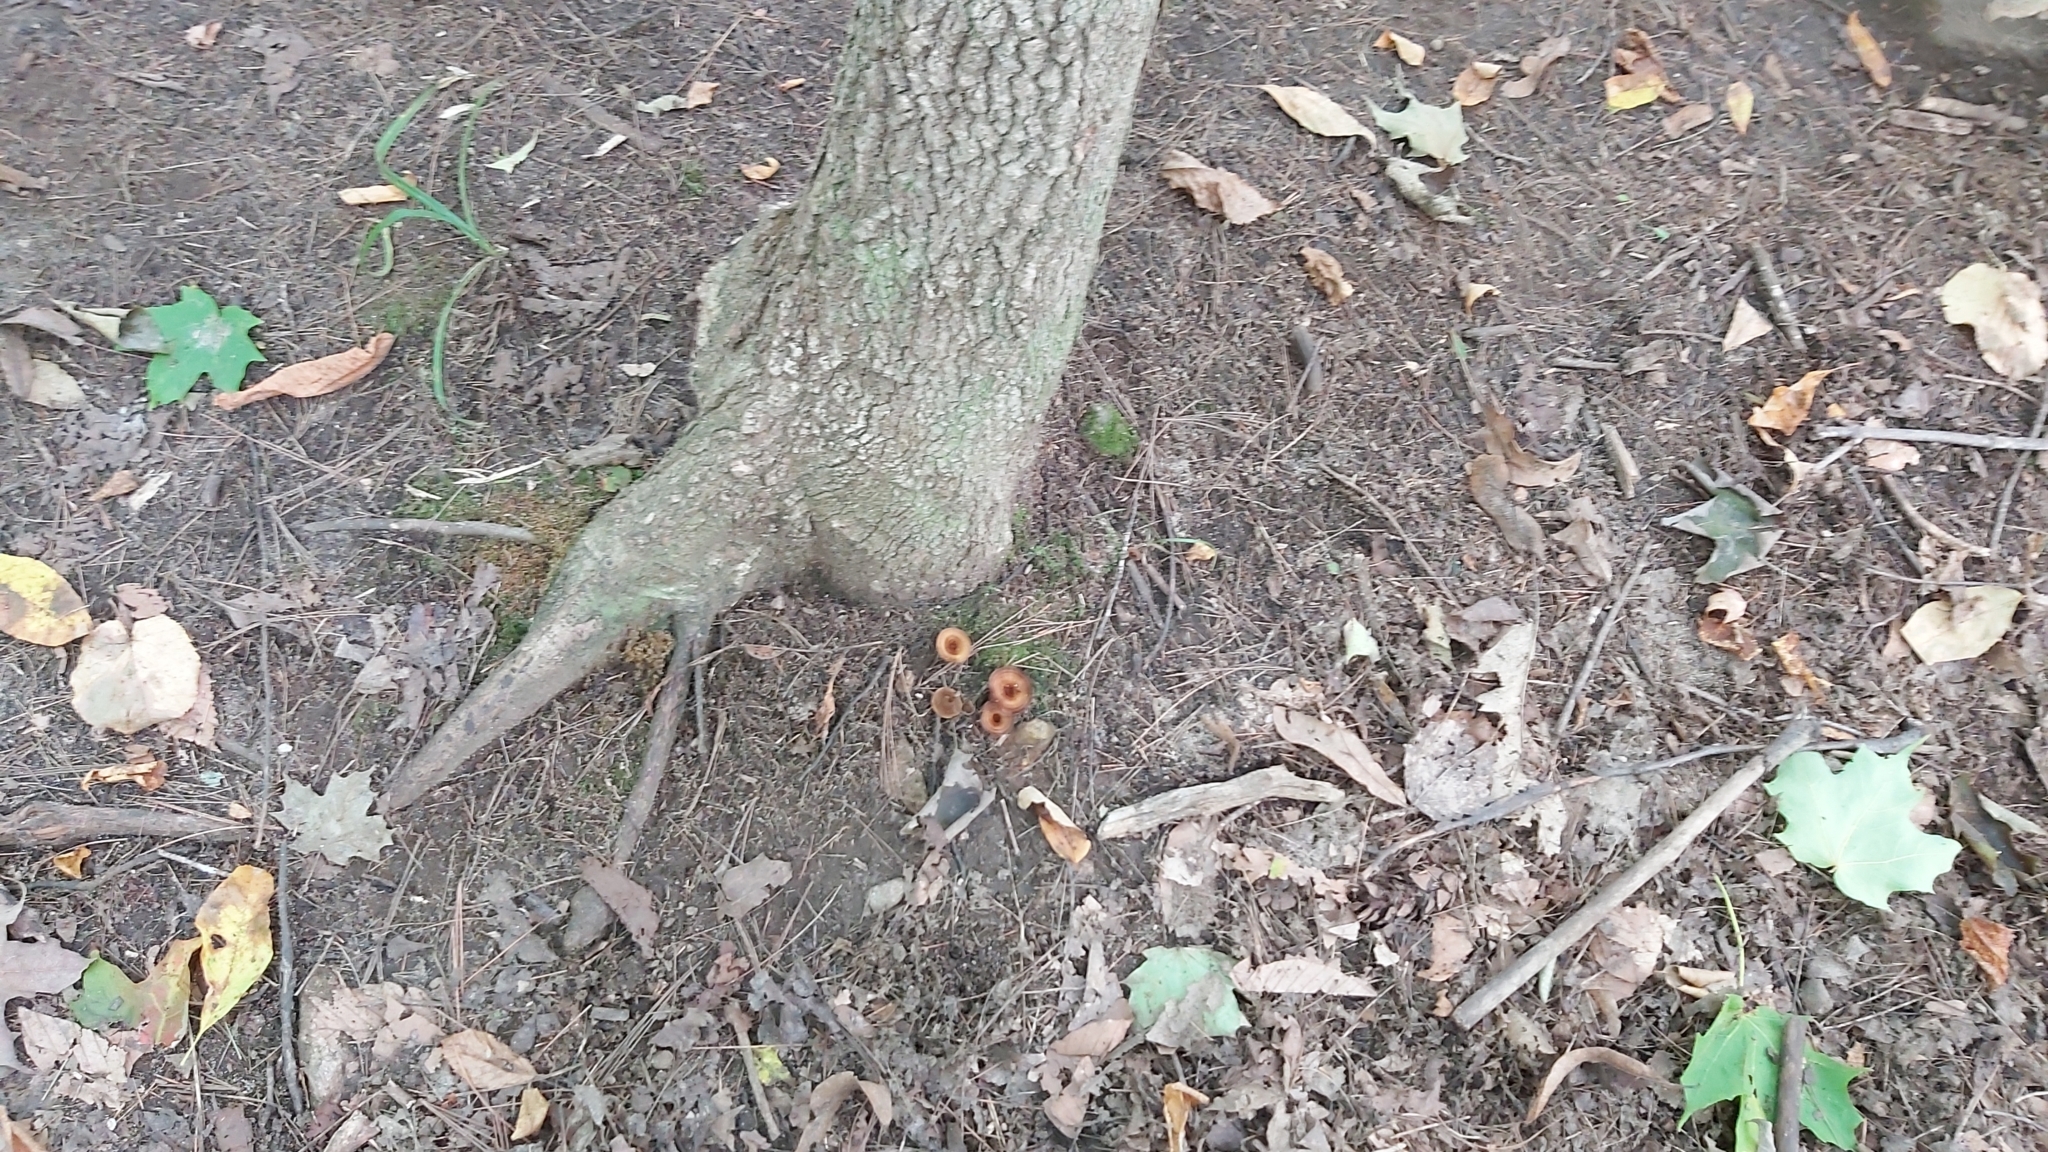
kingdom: Fungi
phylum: Basidiomycota
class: Agaricomycetes
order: Hymenochaetales
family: Hymenochaetaceae
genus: Coltricia
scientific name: Coltricia cinnamomea
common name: Shiny cinnamon polypore
